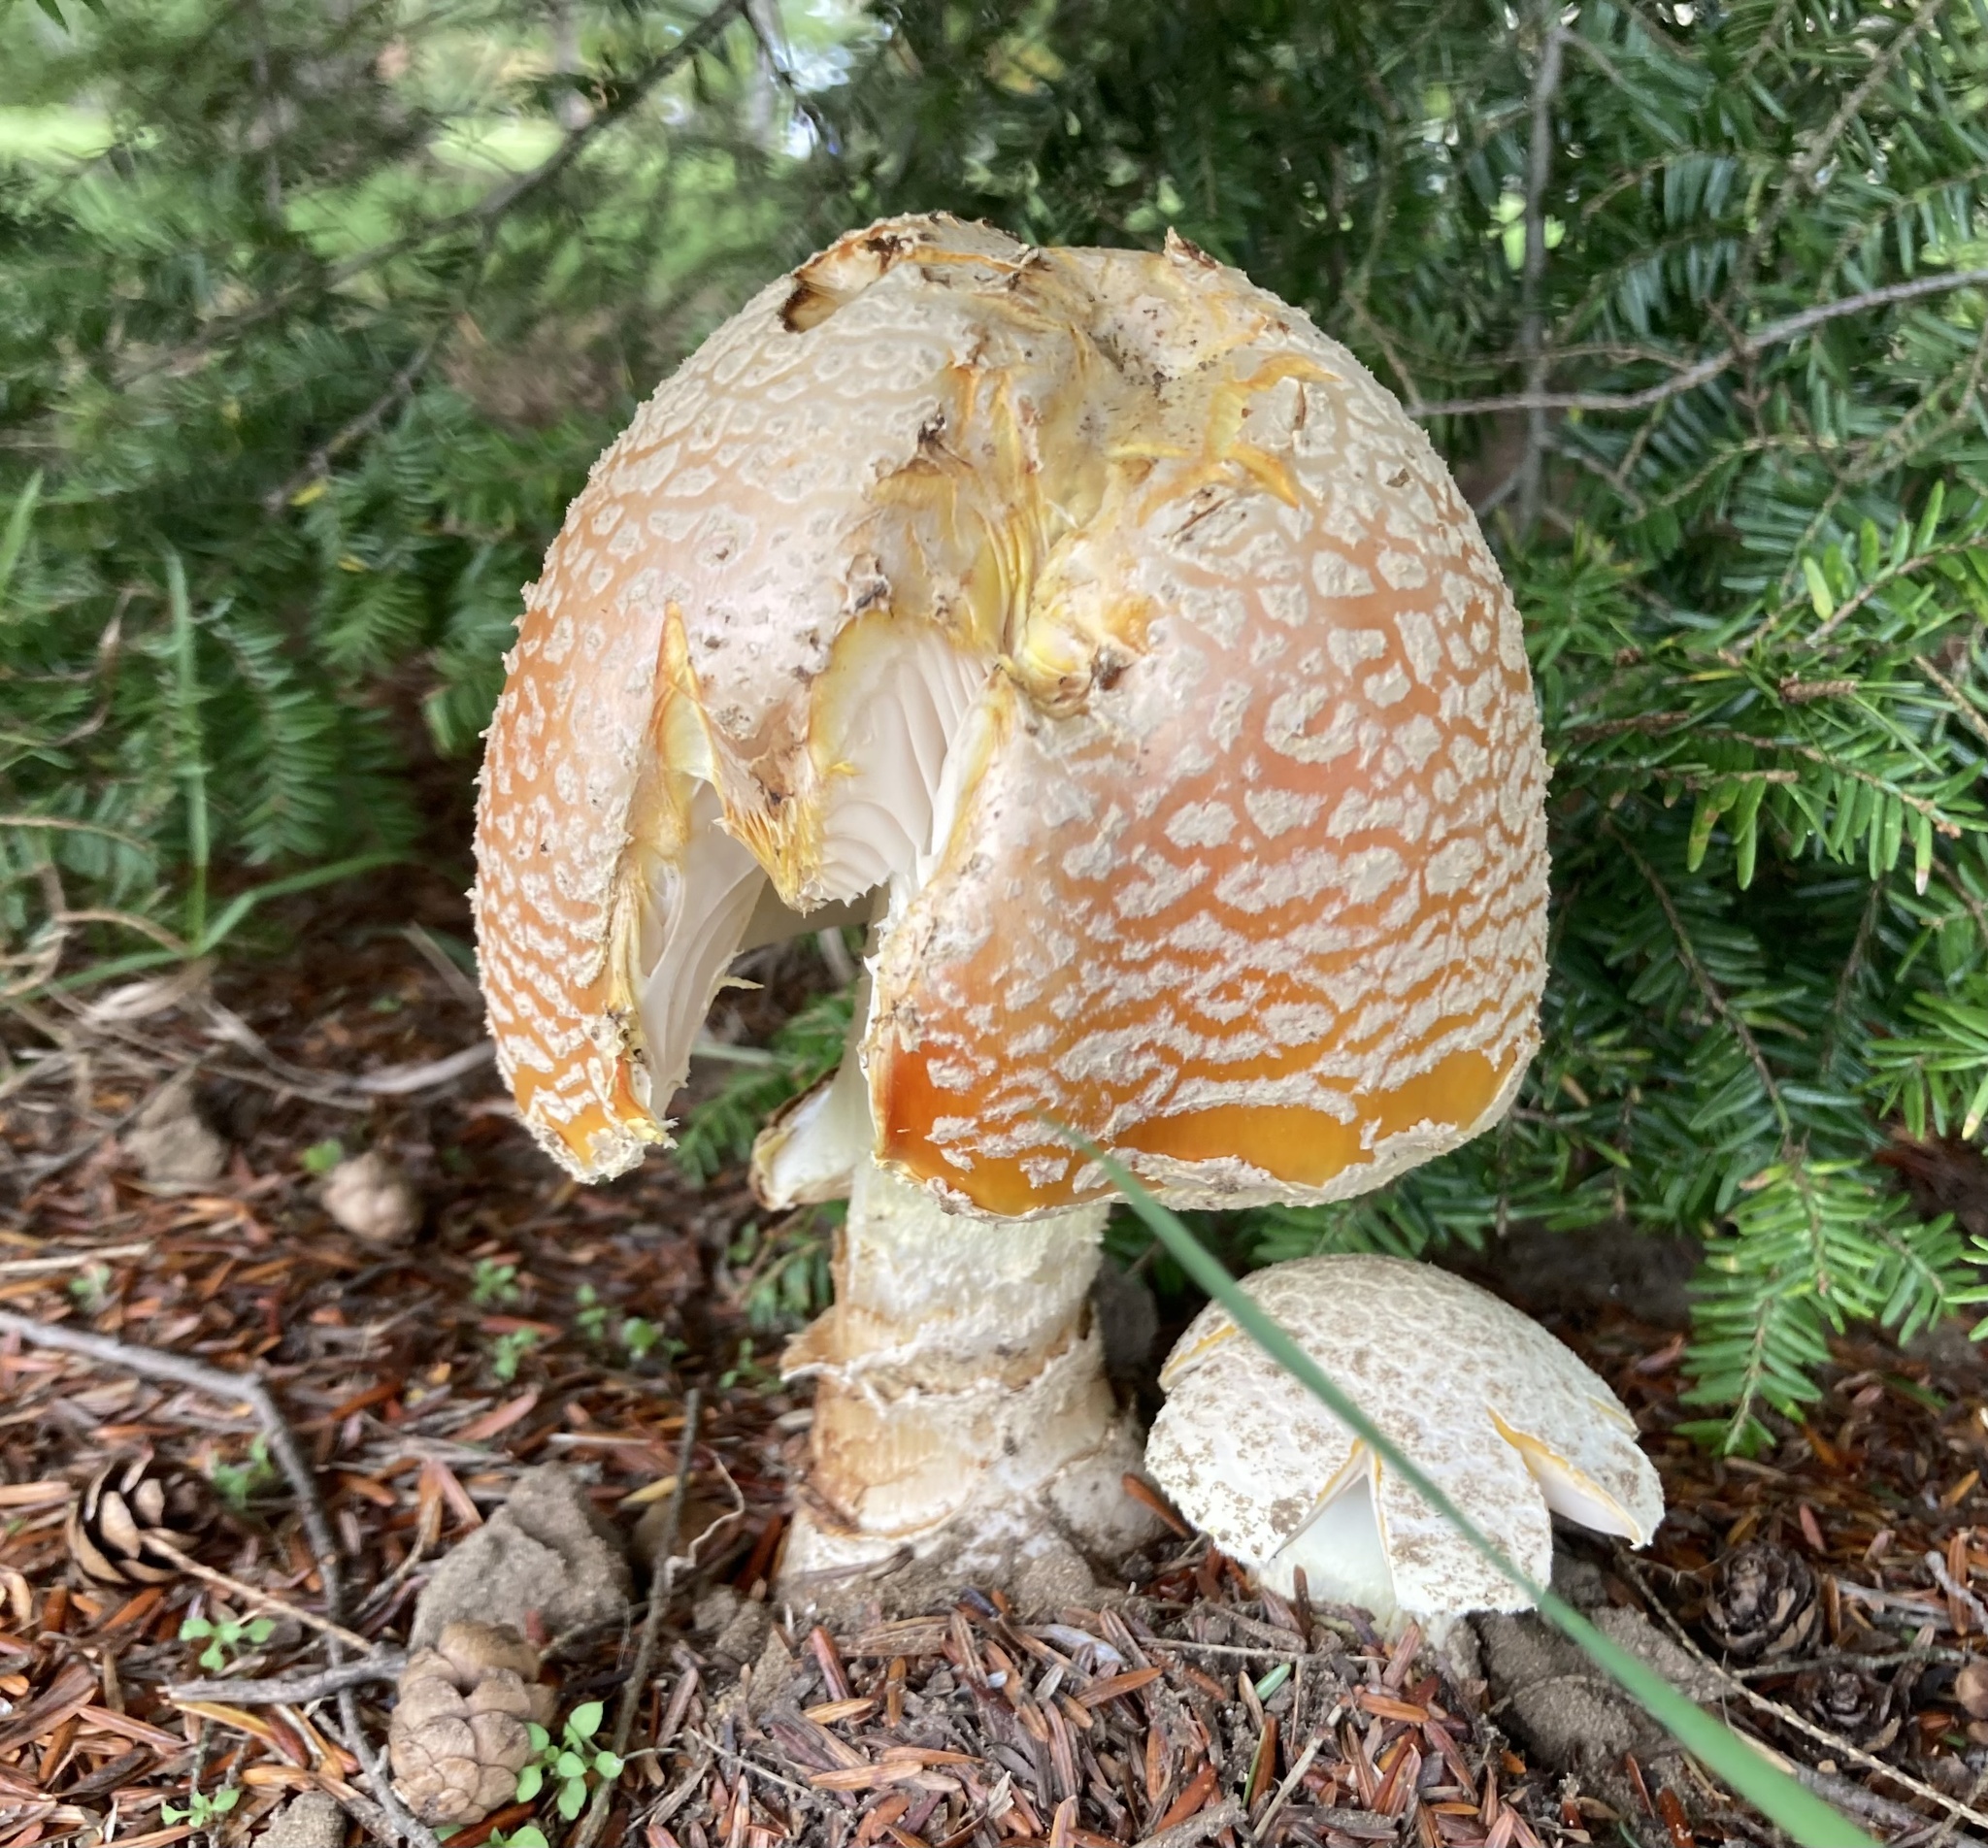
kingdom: Fungi
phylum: Basidiomycota
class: Agaricomycetes
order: Agaricales
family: Amanitaceae
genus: Amanita
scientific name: Amanita muscaria
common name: Fly agaric
